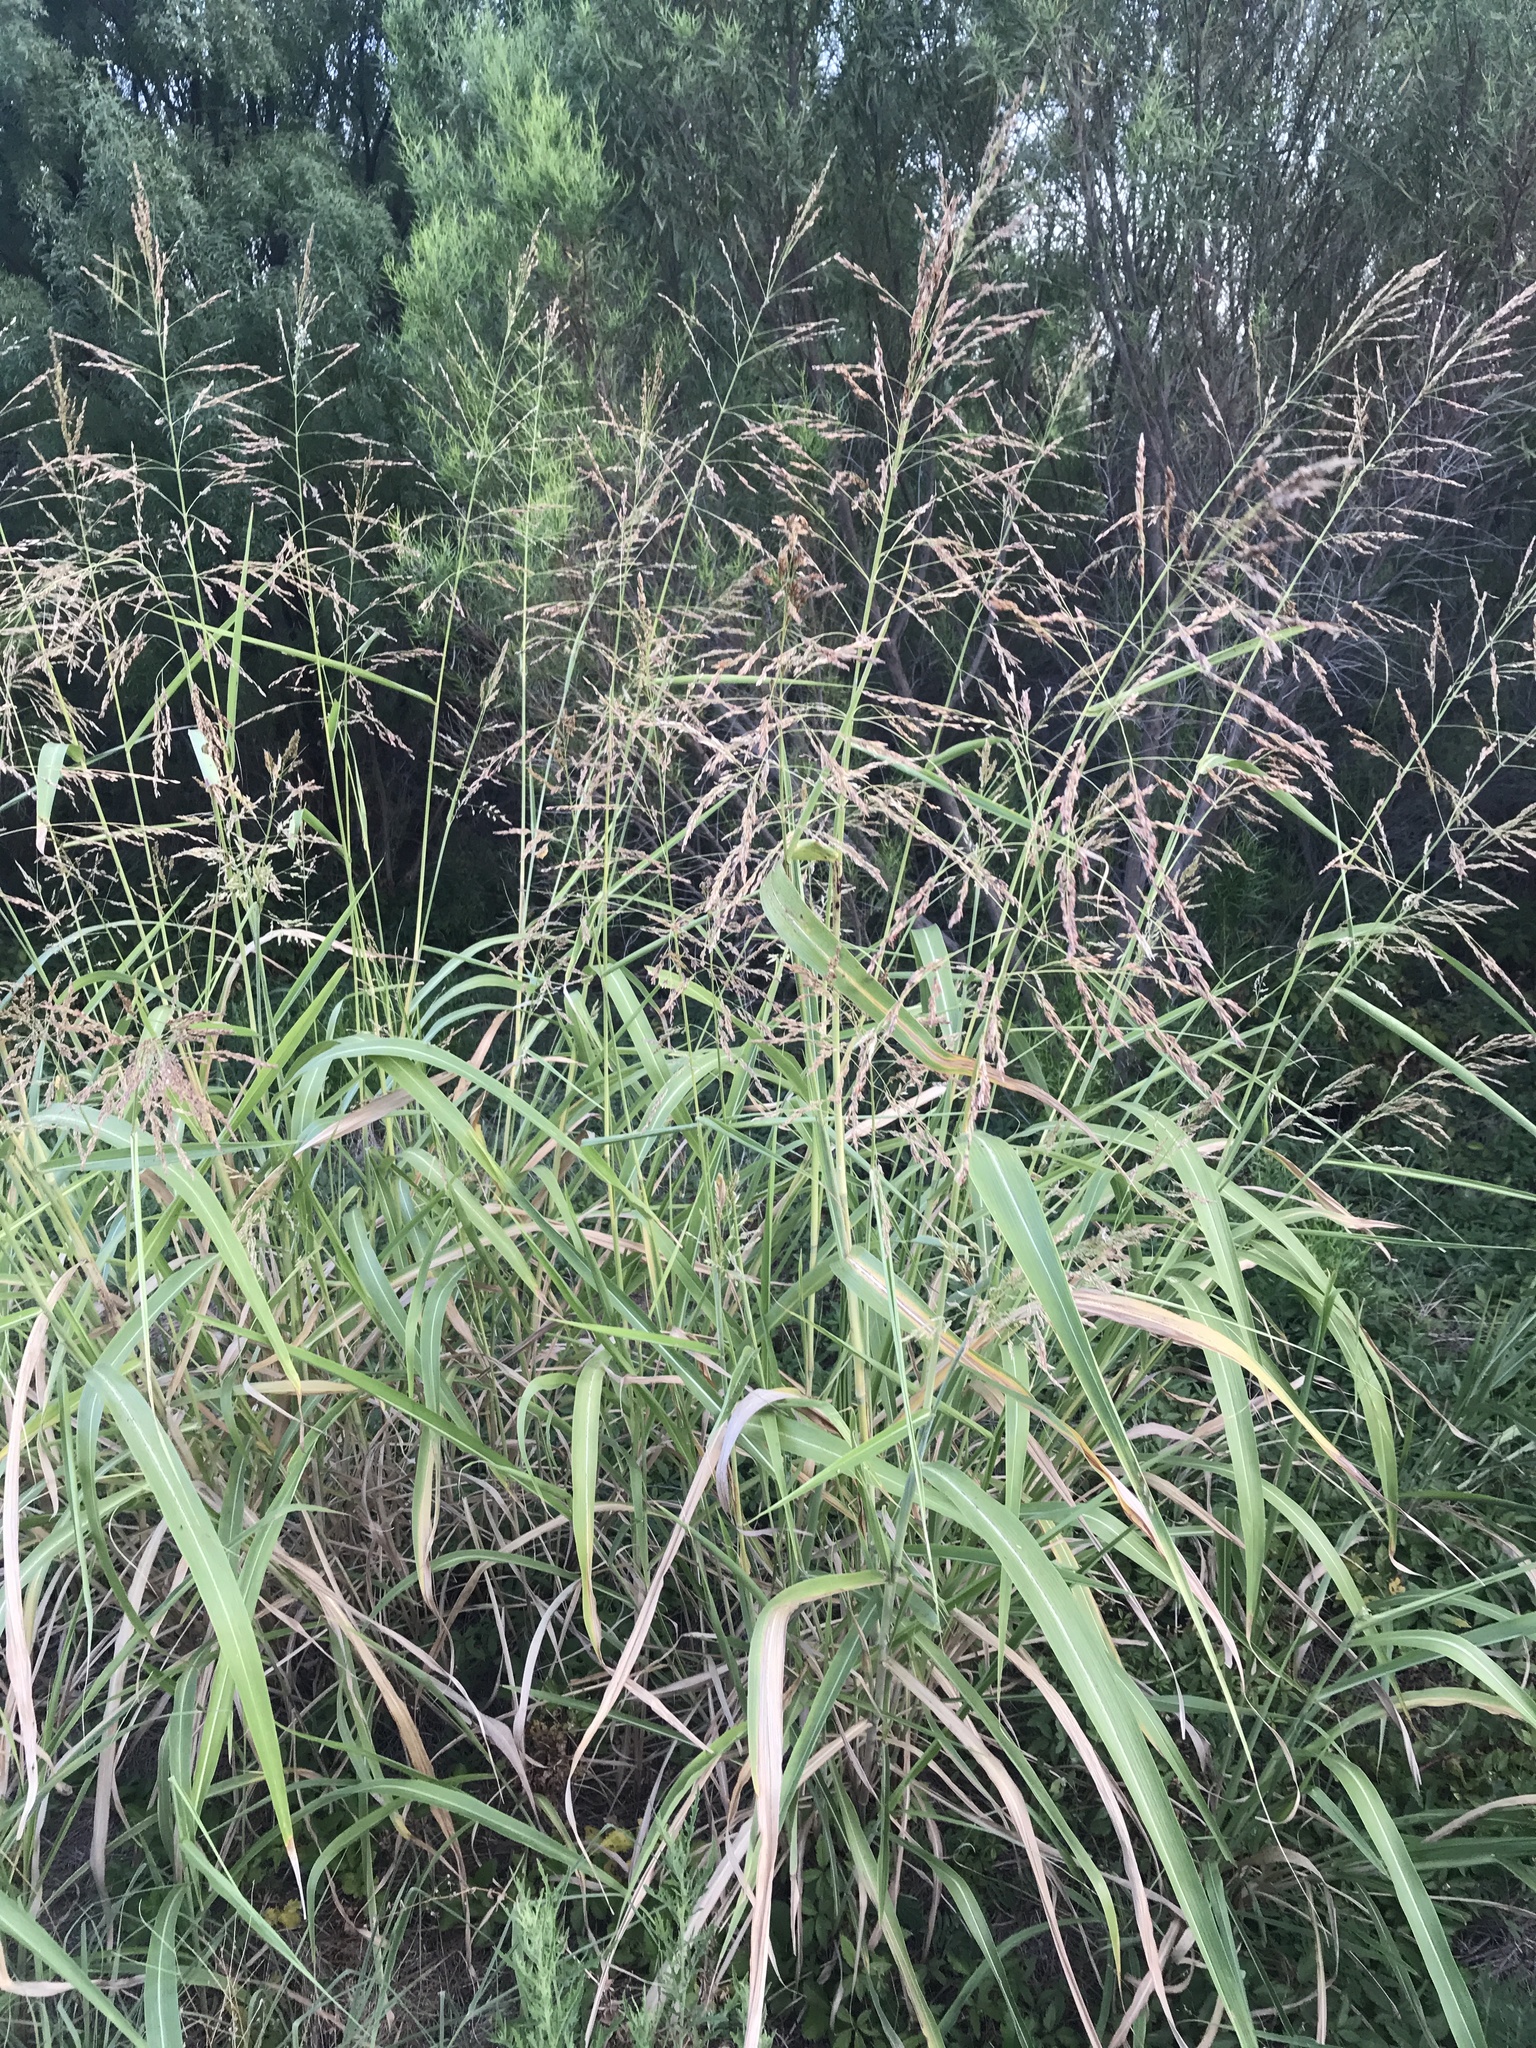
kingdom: Plantae
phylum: Tracheophyta
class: Liliopsida
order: Poales
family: Poaceae
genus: Sorghum
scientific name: Sorghum halepense
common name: Johnson-grass
